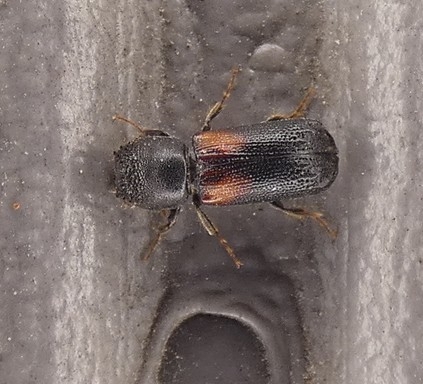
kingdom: Animalia
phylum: Arthropoda
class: Insecta
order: Coleoptera
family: Bostrichidae
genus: Xylobiops
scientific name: Xylobiops basilaris
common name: Red-shouldered bostrichid
